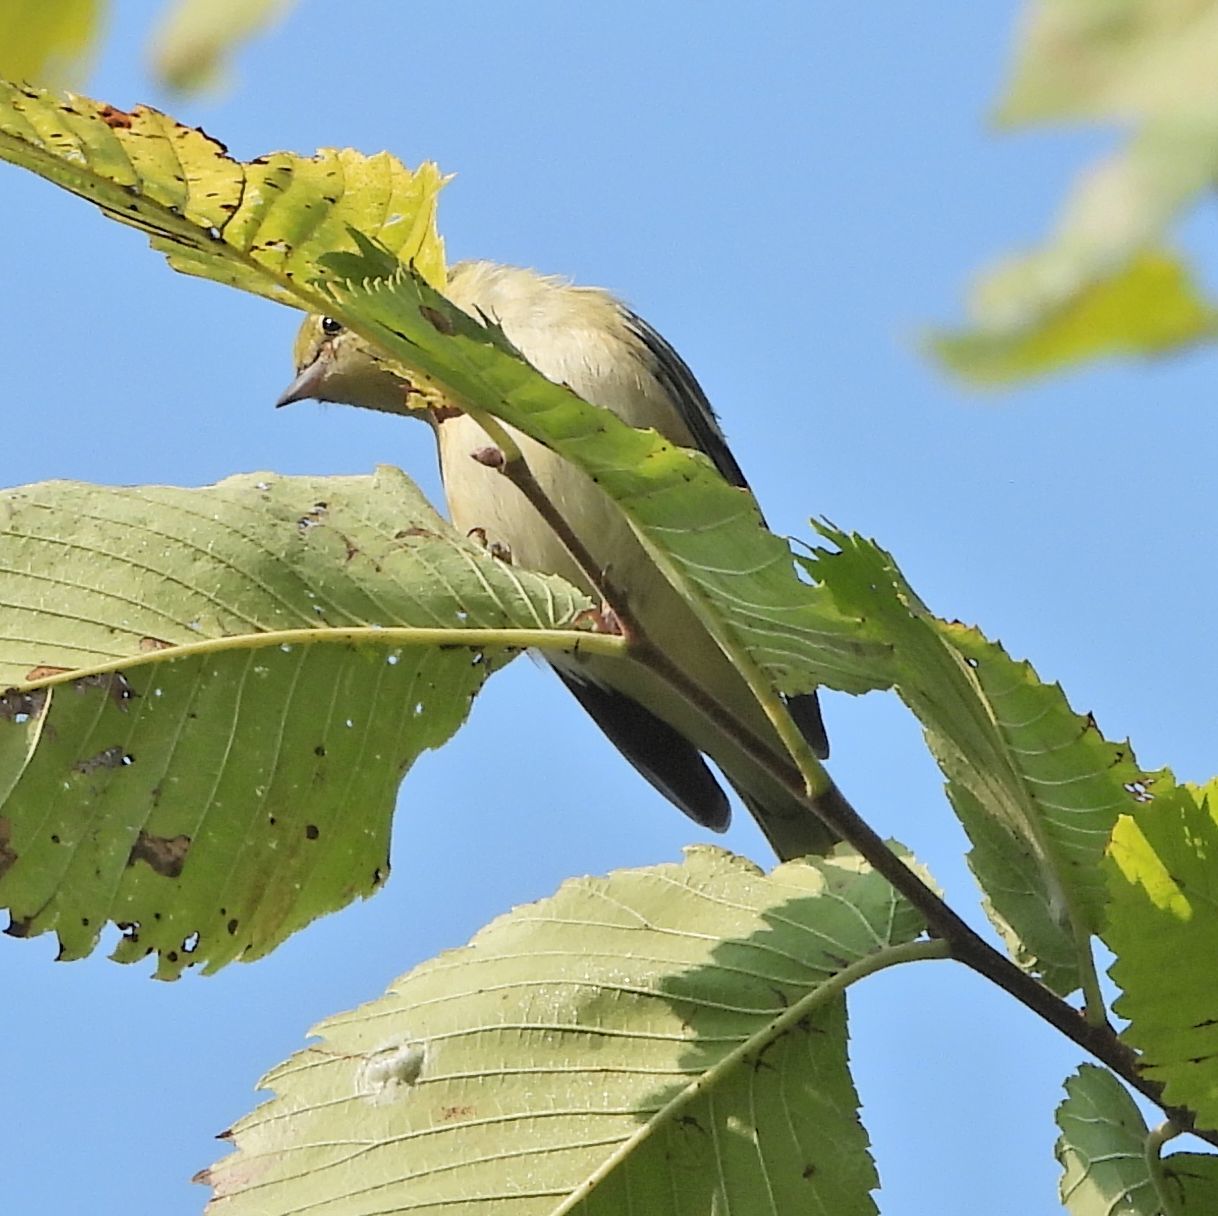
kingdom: Animalia
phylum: Chordata
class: Aves
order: Passeriformes
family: Parulidae
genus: Leiothlypis
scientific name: Leiothlypis peregrina
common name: Tennessee warbler
